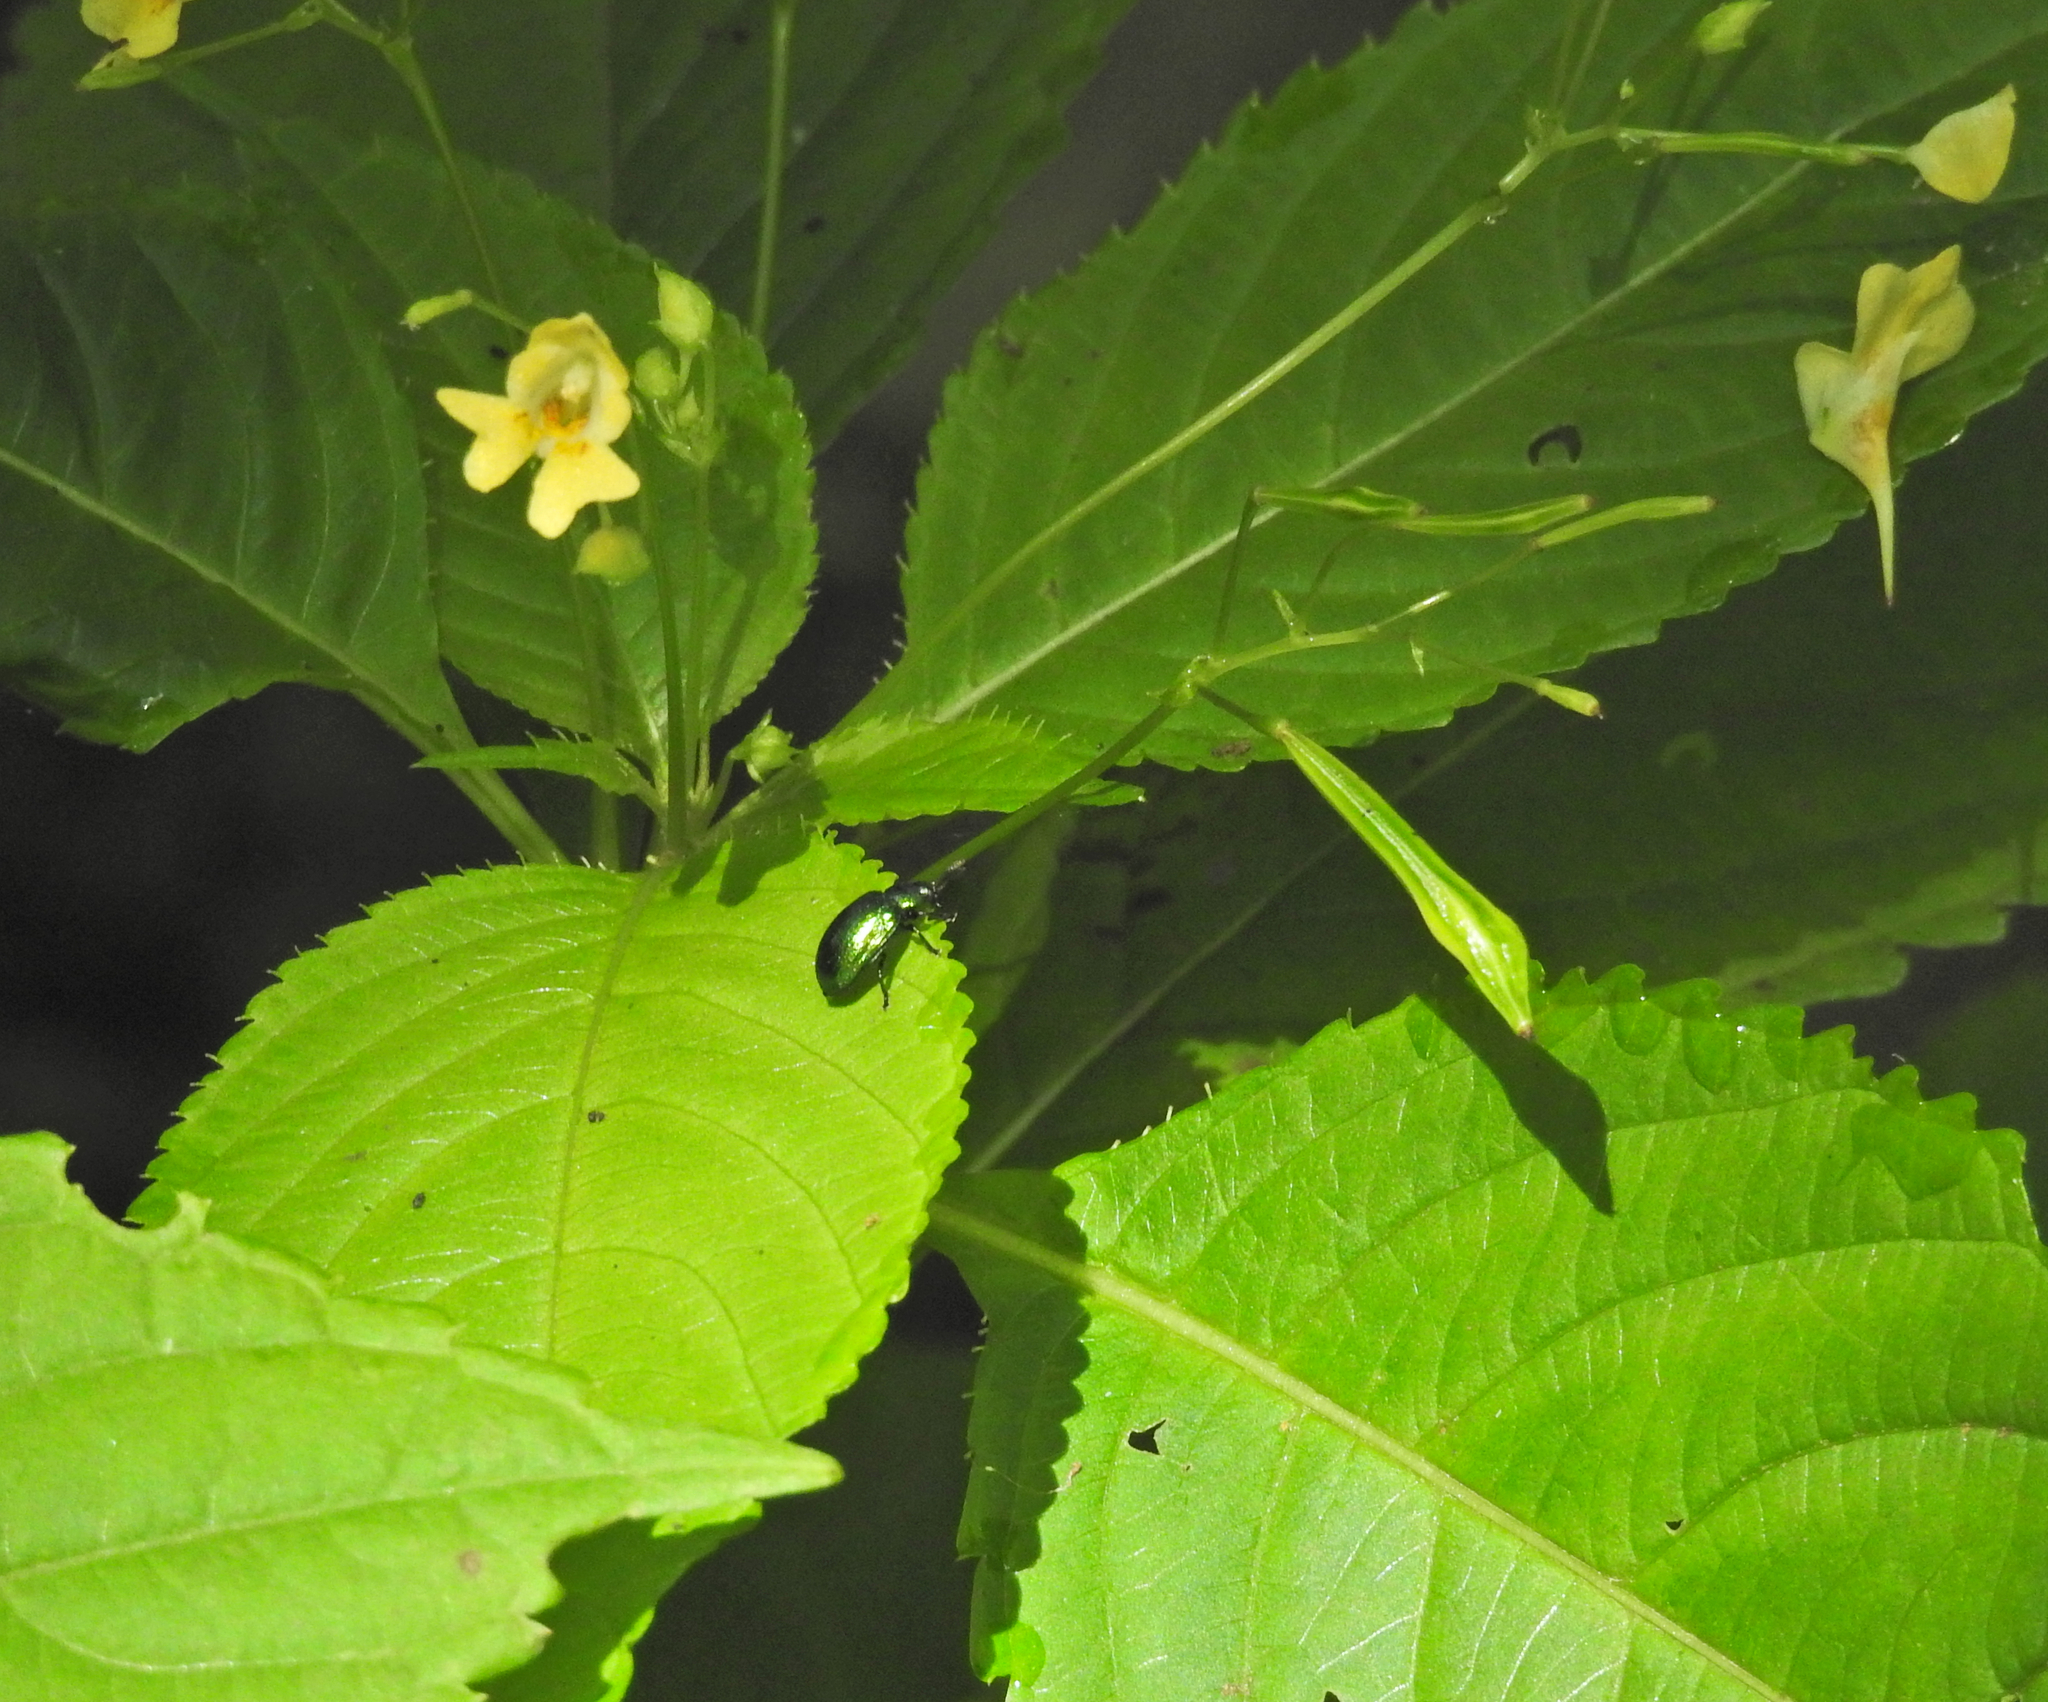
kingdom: Plantae
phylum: Tracheophyta
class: Magnoliopsida
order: Ericales
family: Balsaminaceae
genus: Impatiens
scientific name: Impatiens parviflora
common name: Small balsam
